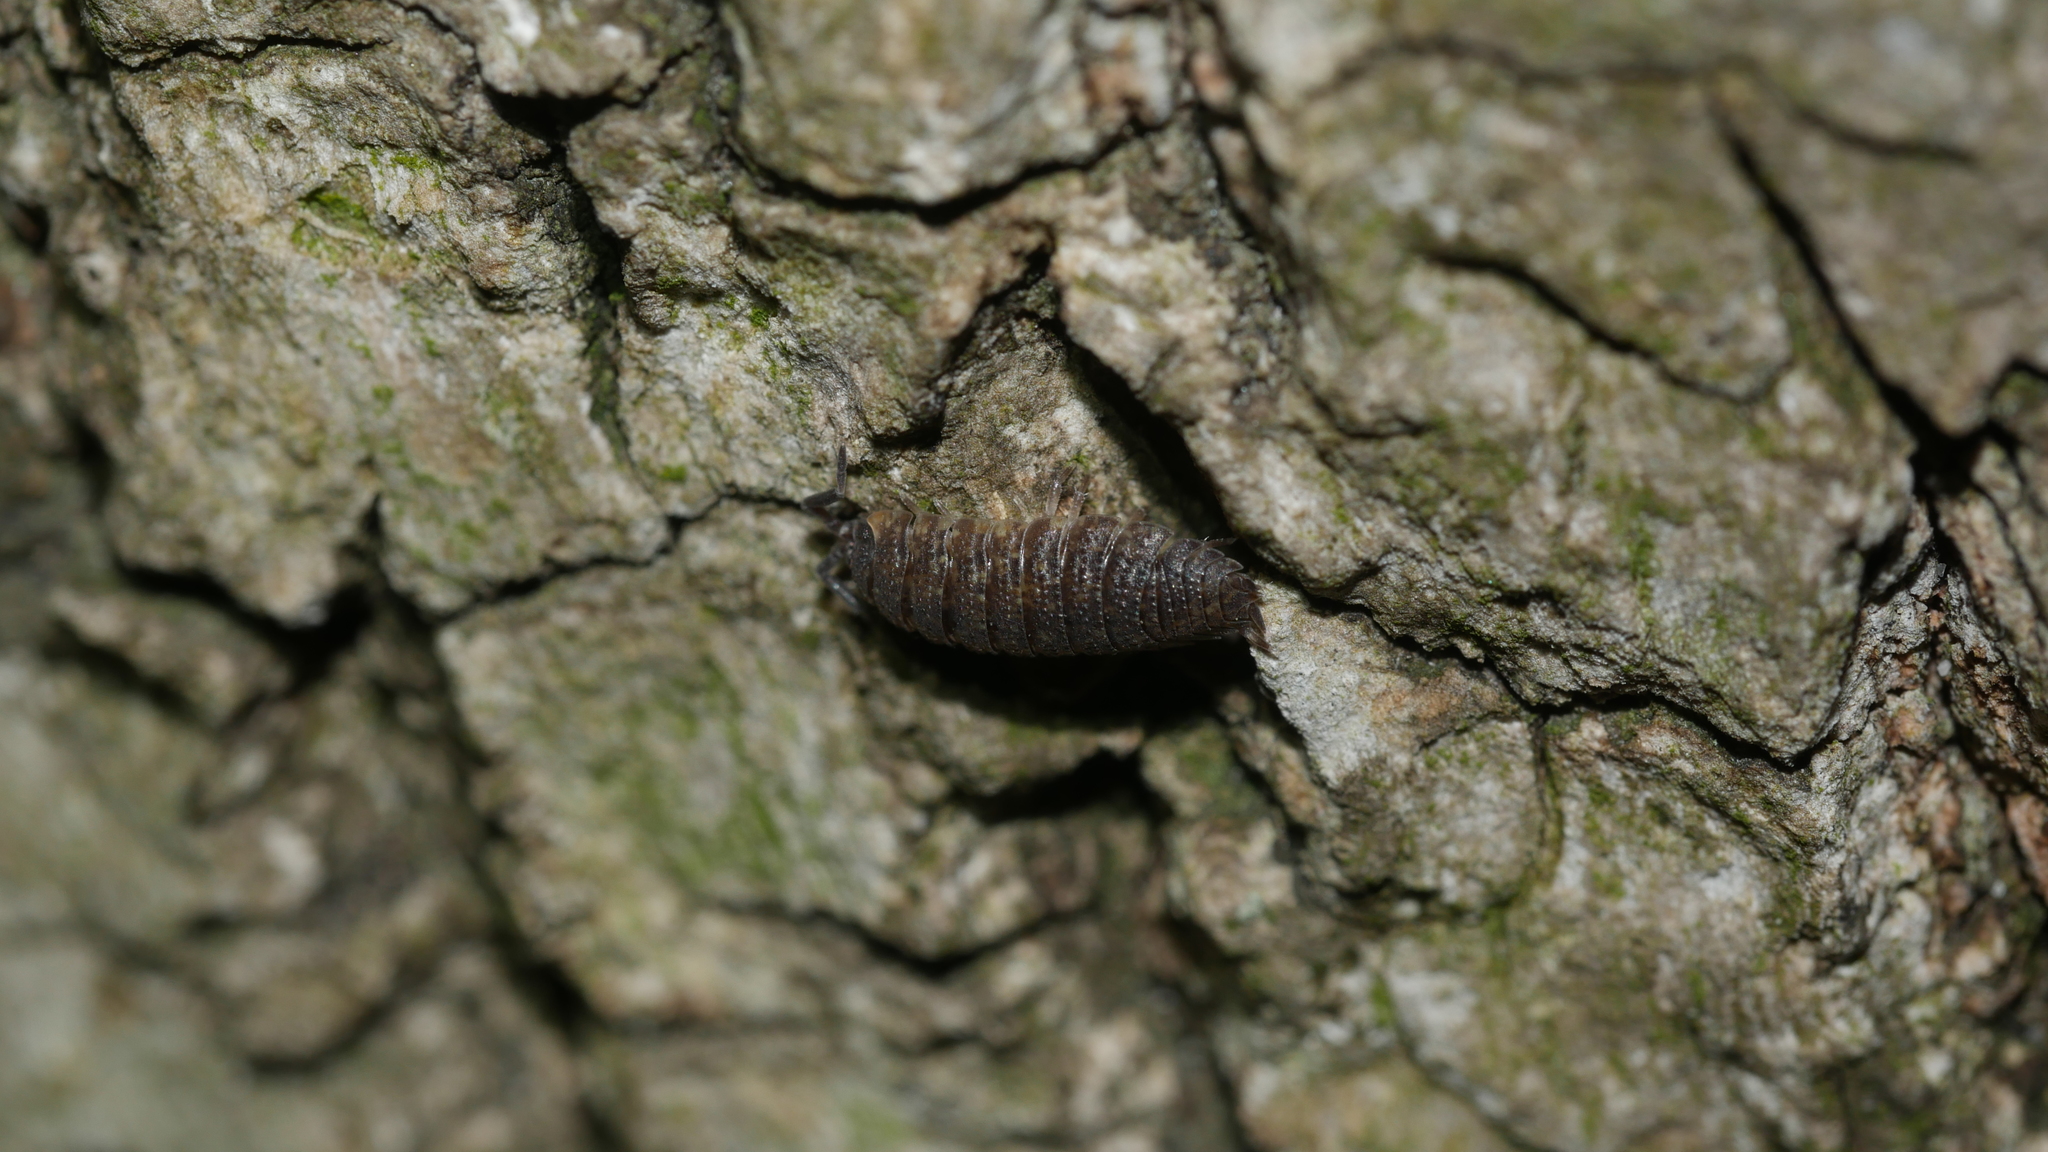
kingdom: Animalia
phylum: Arthropoda
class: Malacostraca
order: Isopoda
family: Porcellionidae
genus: Porcellio
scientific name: Porcellio scaber
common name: Common rough woodlouse
